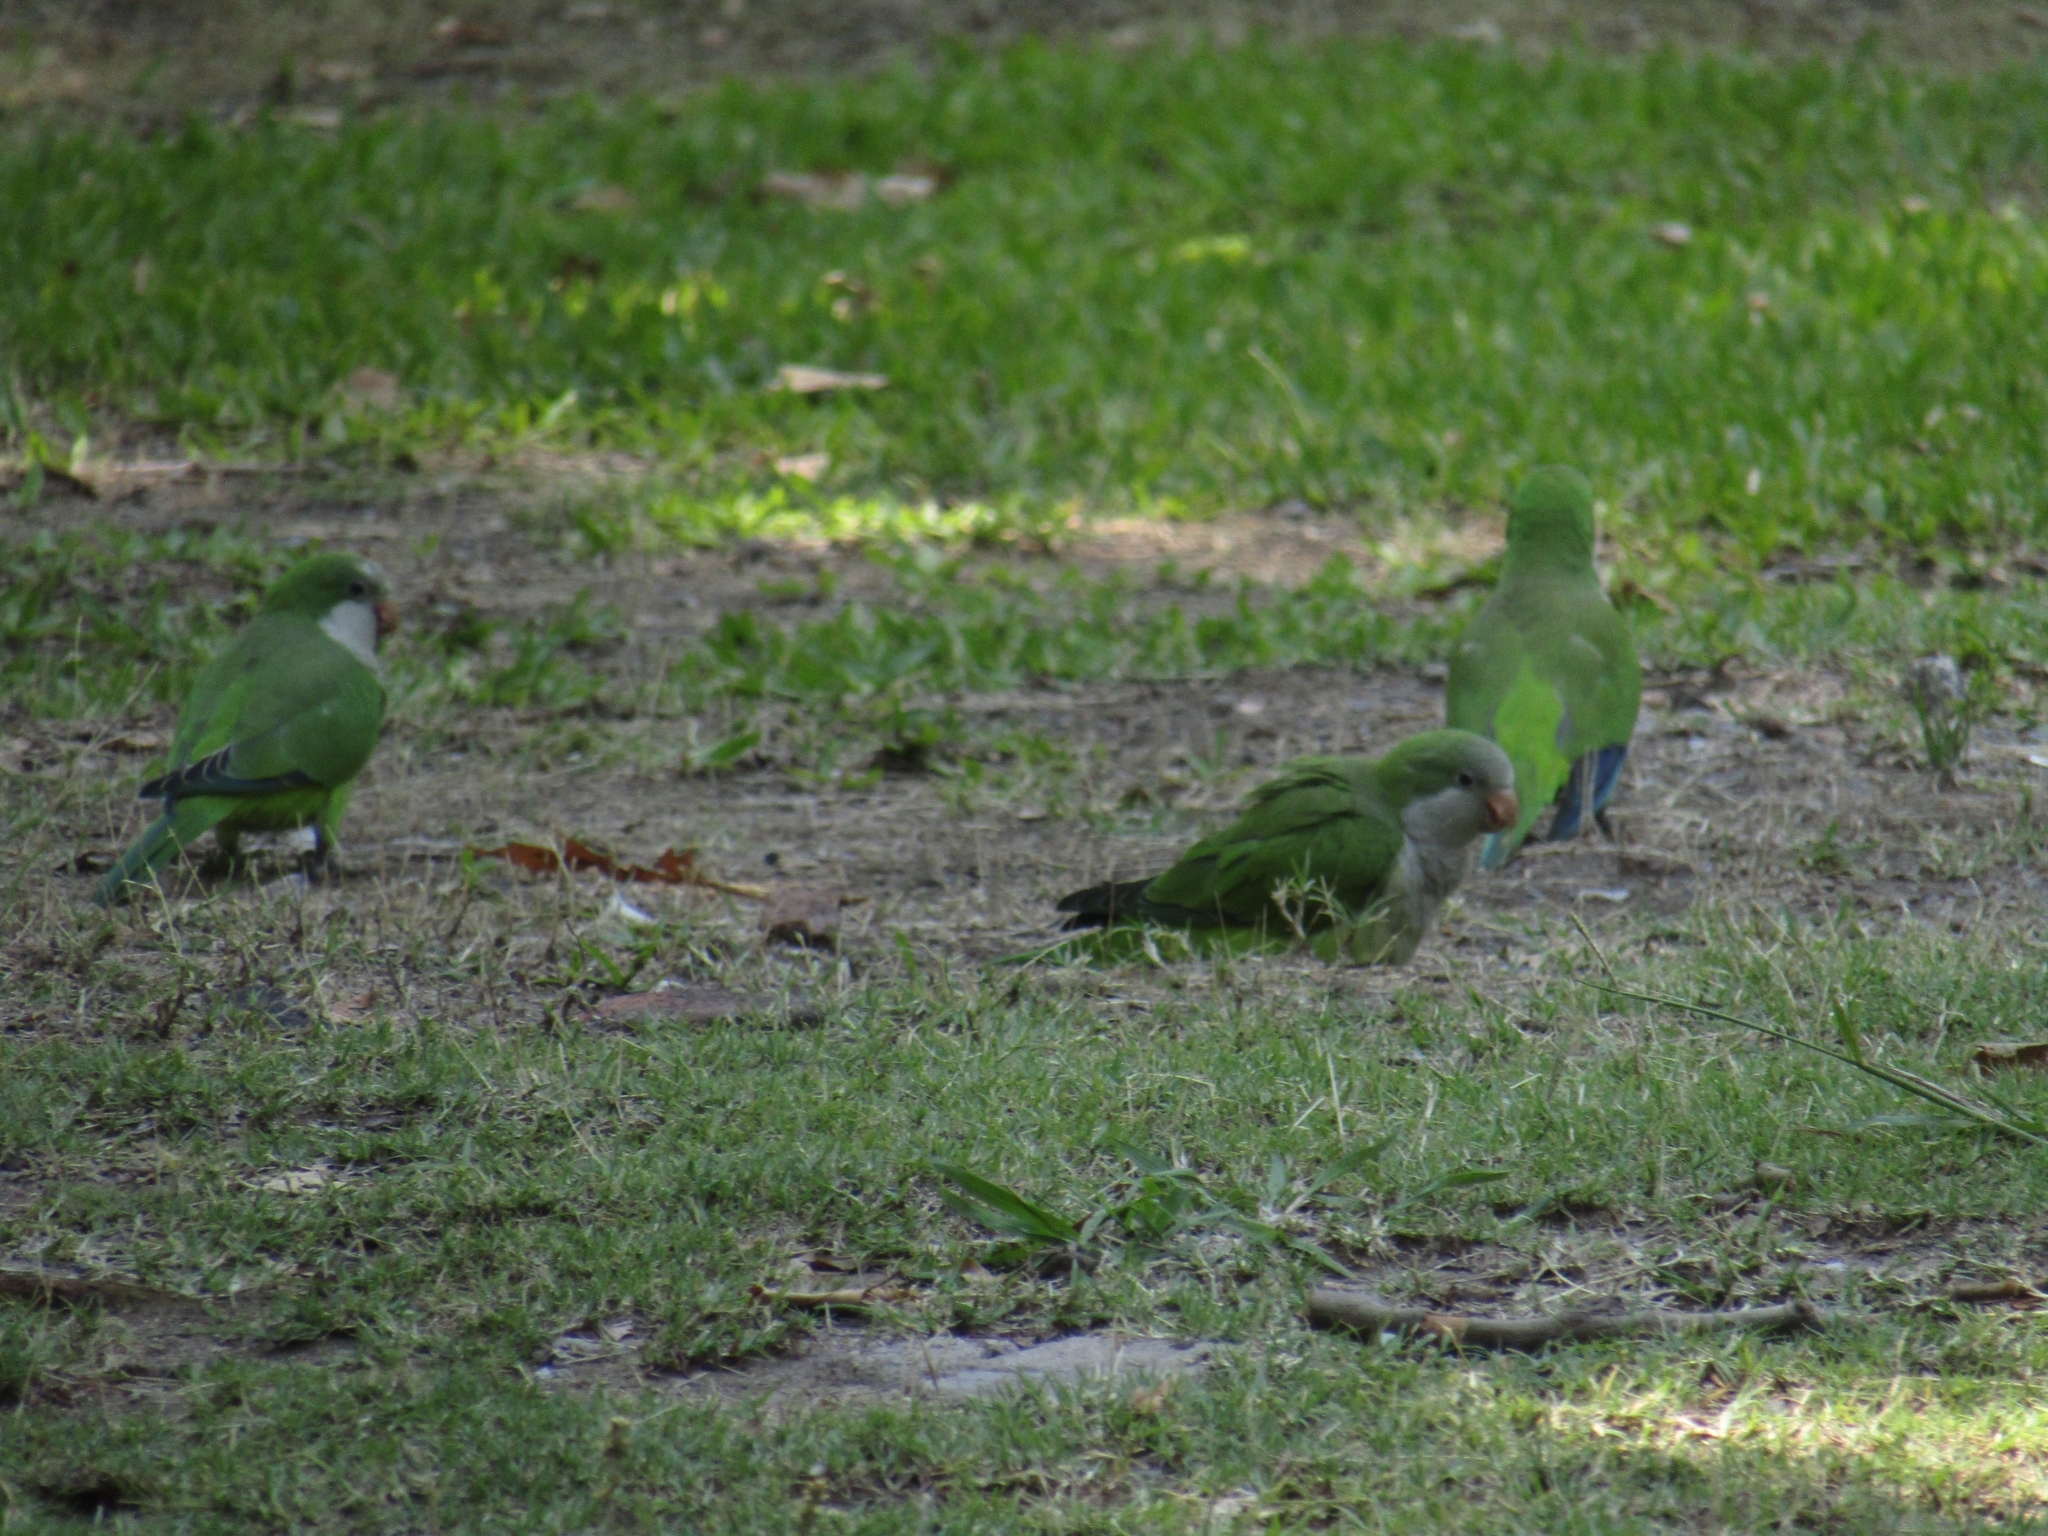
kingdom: Animalia
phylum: Chordata
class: Aves
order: Psittaciformes
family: Psittacidae
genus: Myiopsitta
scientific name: Myiopsitta monachus
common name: Monk parakeet
